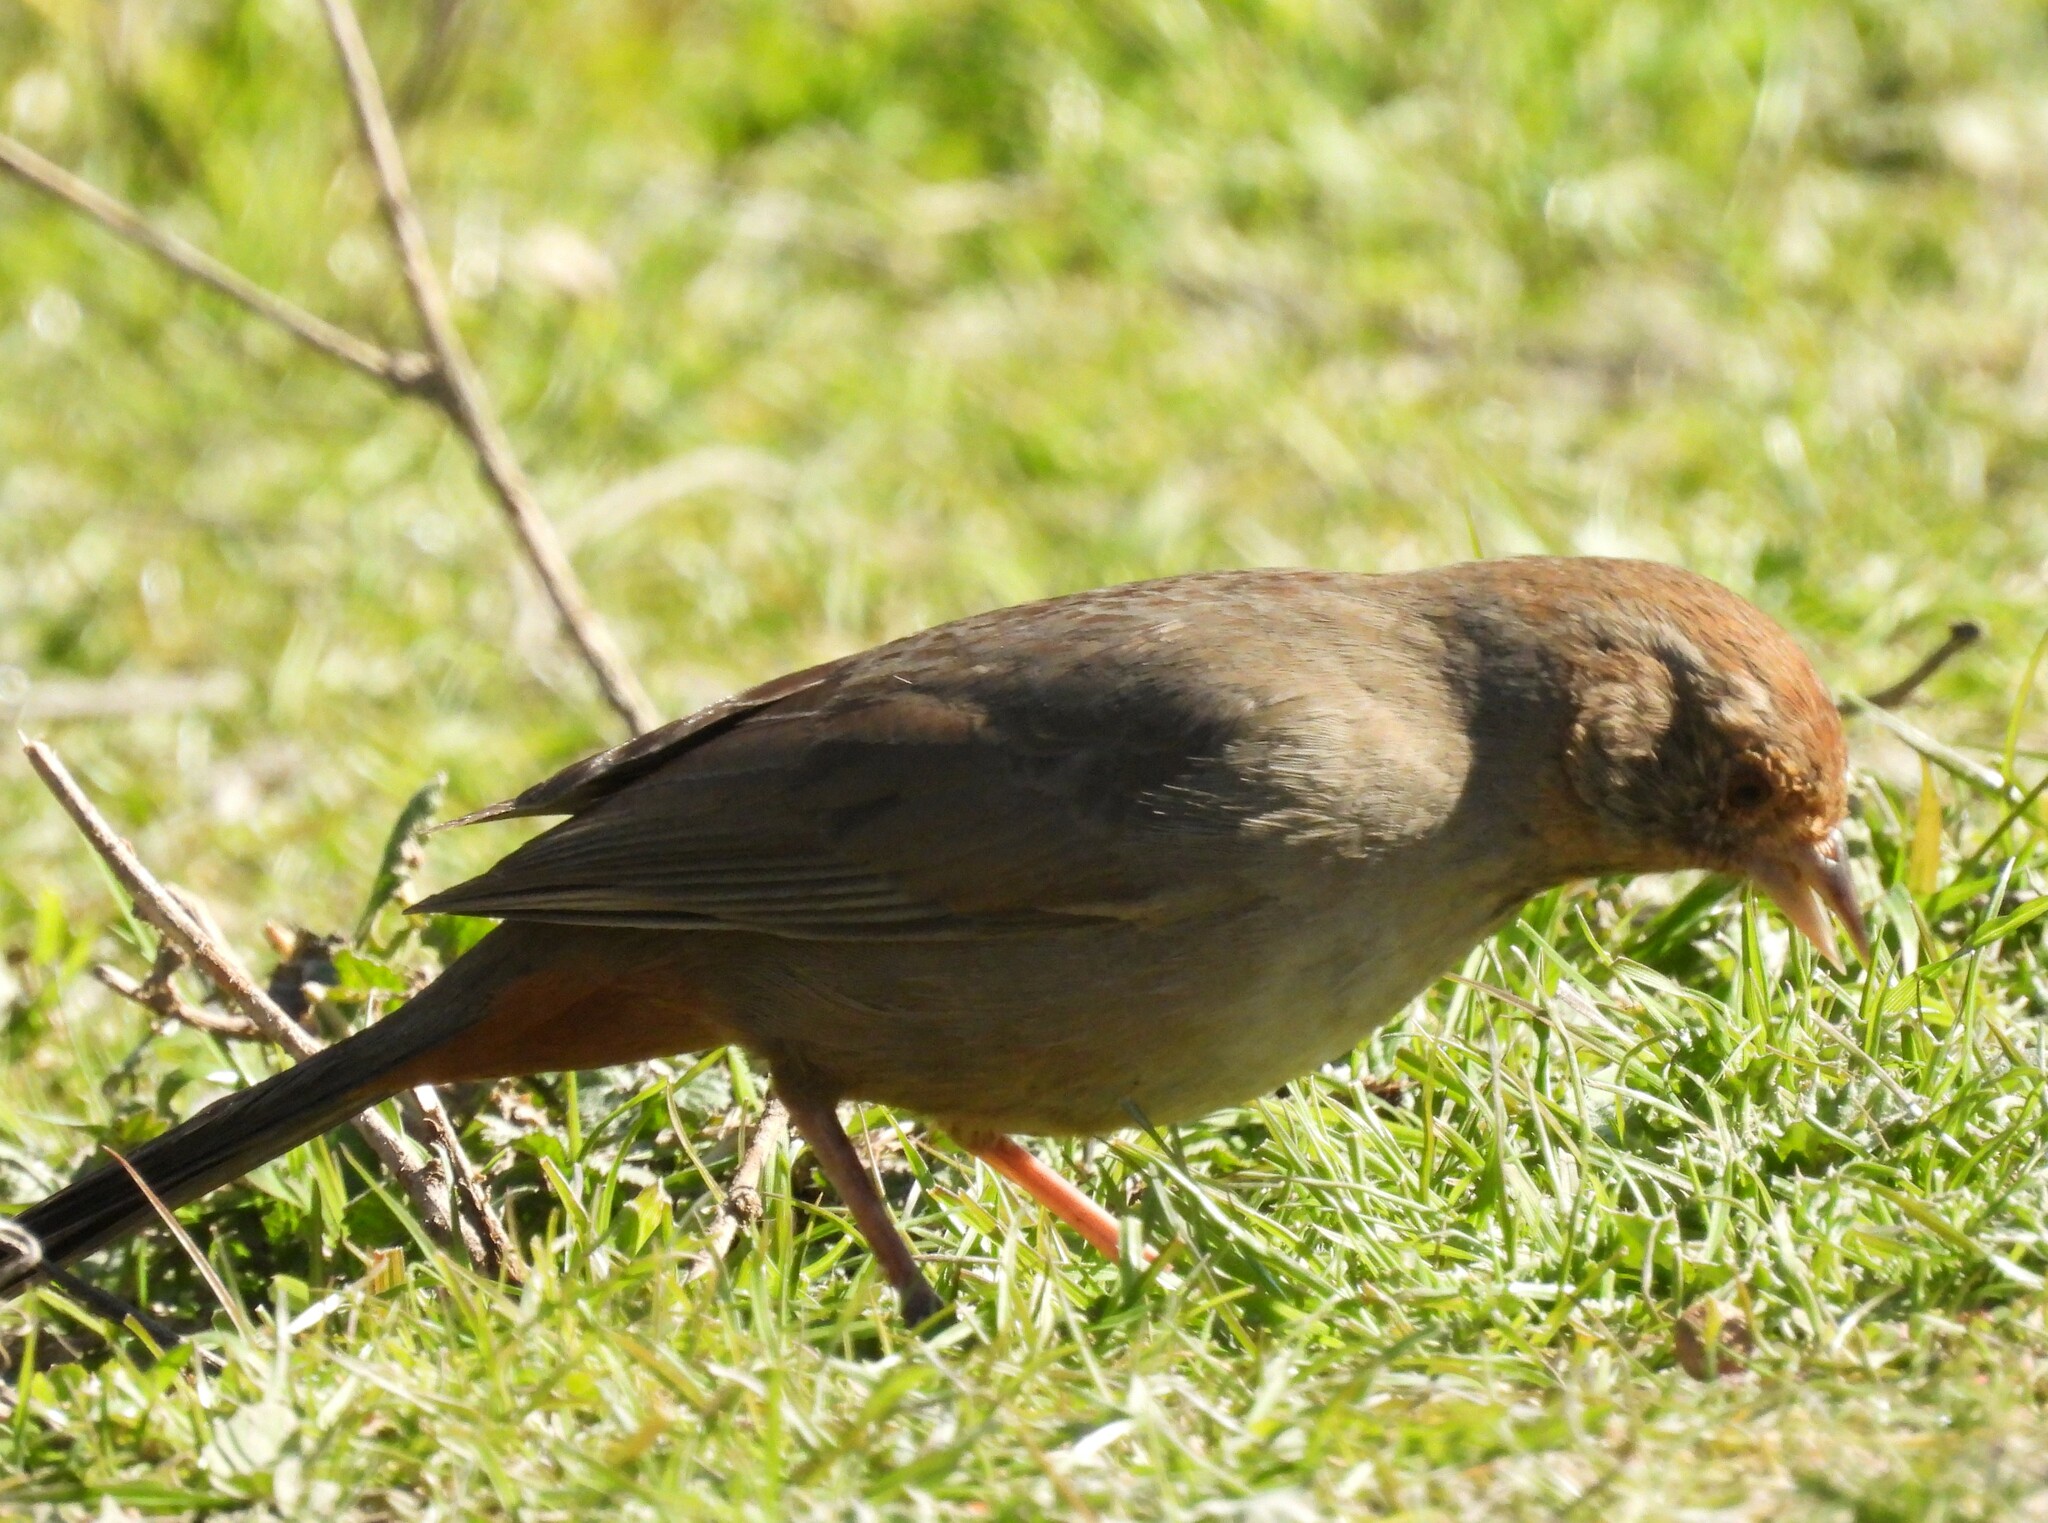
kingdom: Animalia
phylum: Chordata
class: Aves
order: Passeriformes
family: Passerellidae
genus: Melozone
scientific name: Melozone crissalis
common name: California towhee
